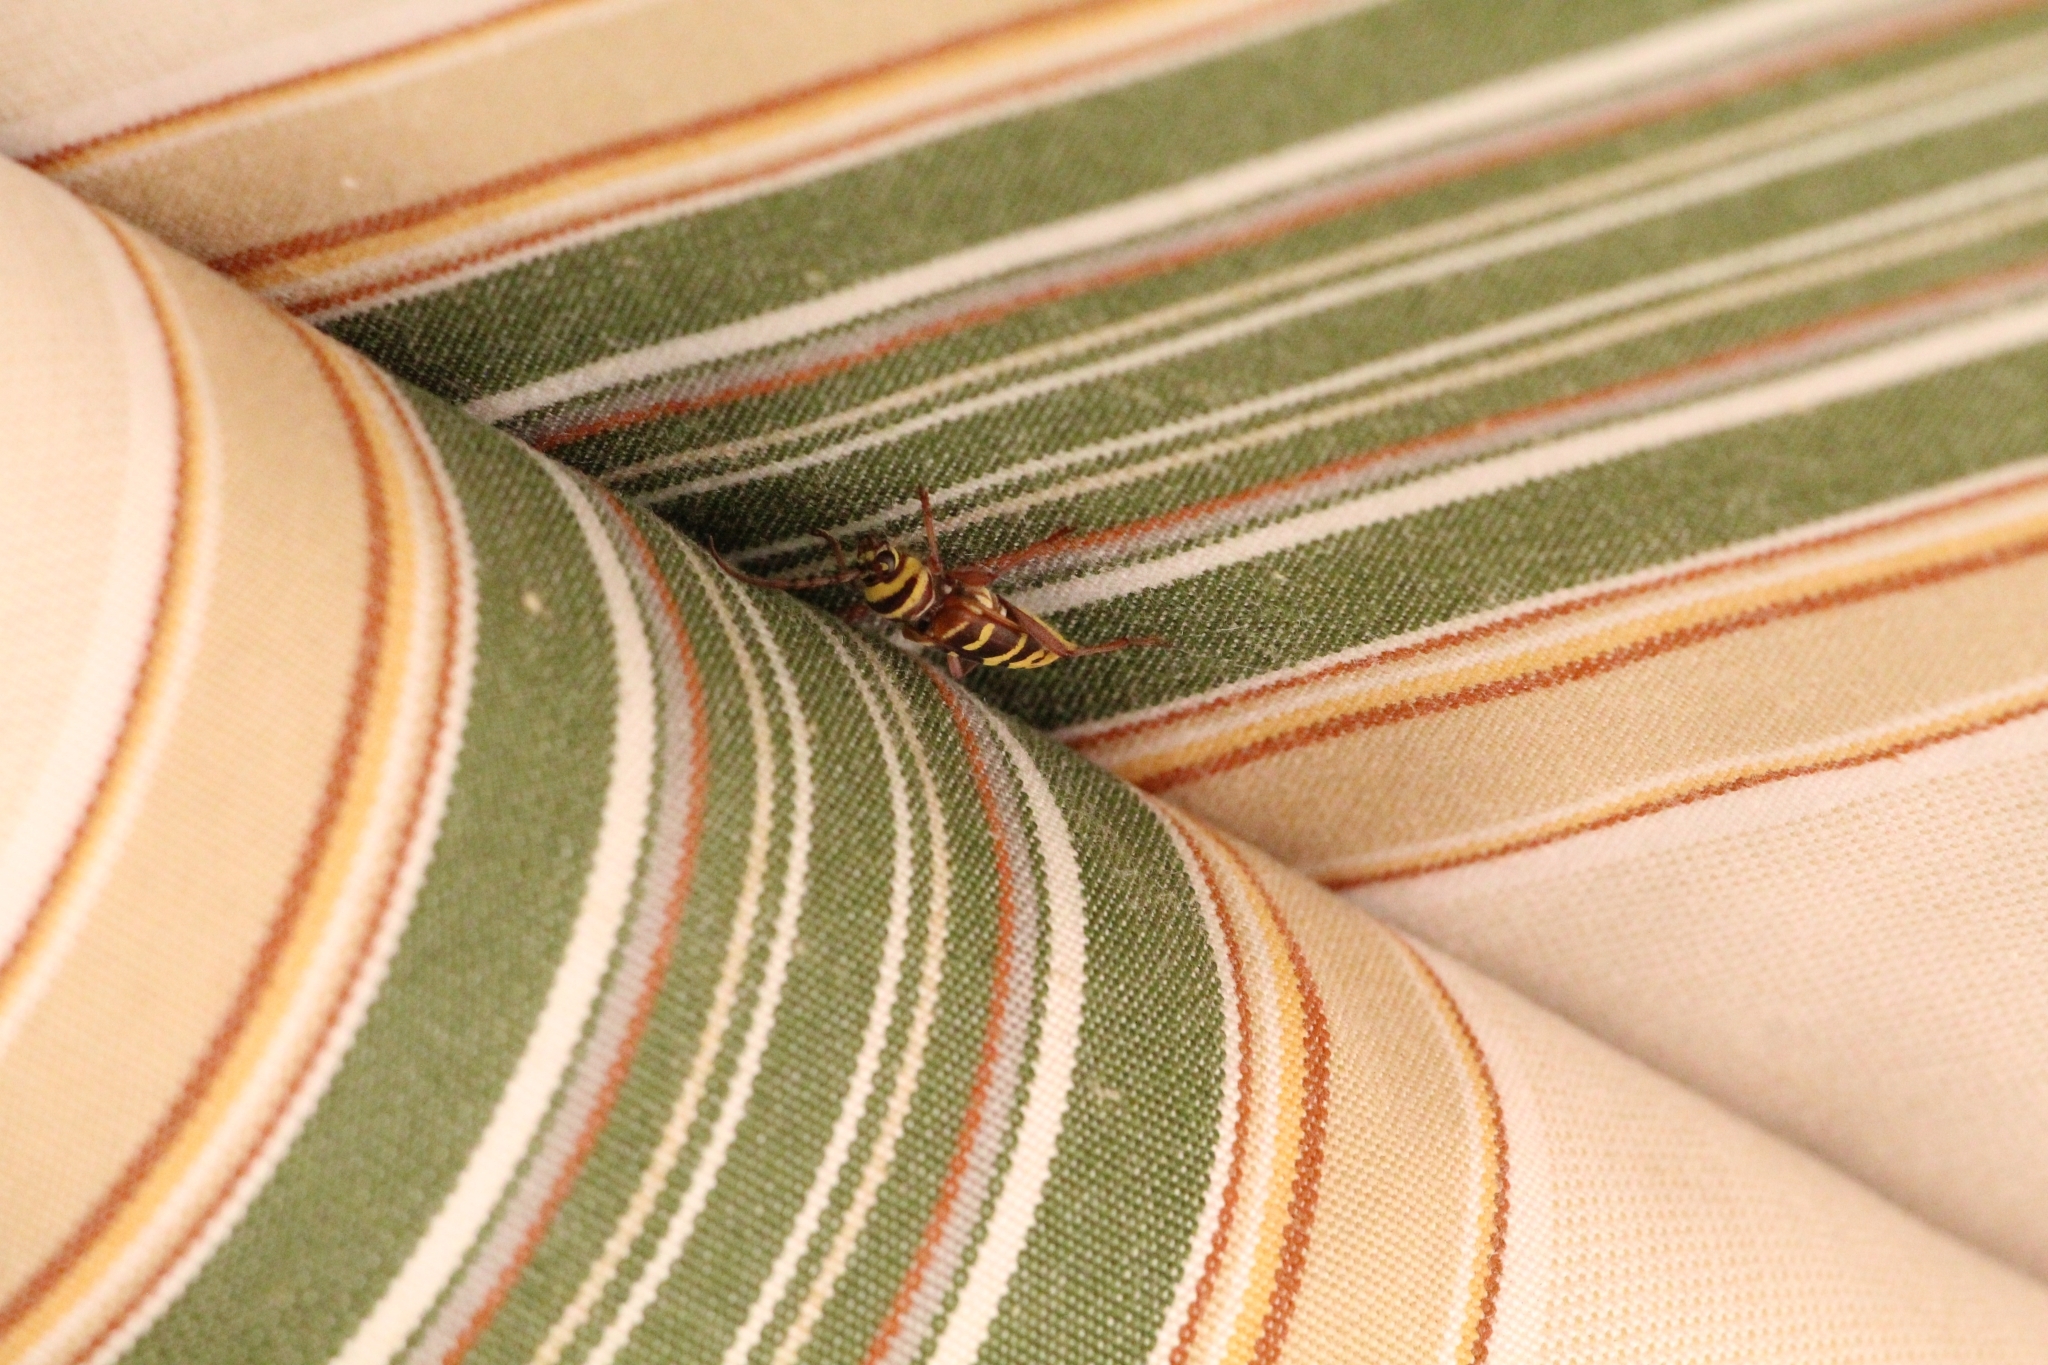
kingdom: Animalia
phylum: Arthropoda
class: Insecta
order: Coleoptera
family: Cerambycidae
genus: Plagionotus
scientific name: Plagionotus detritus
